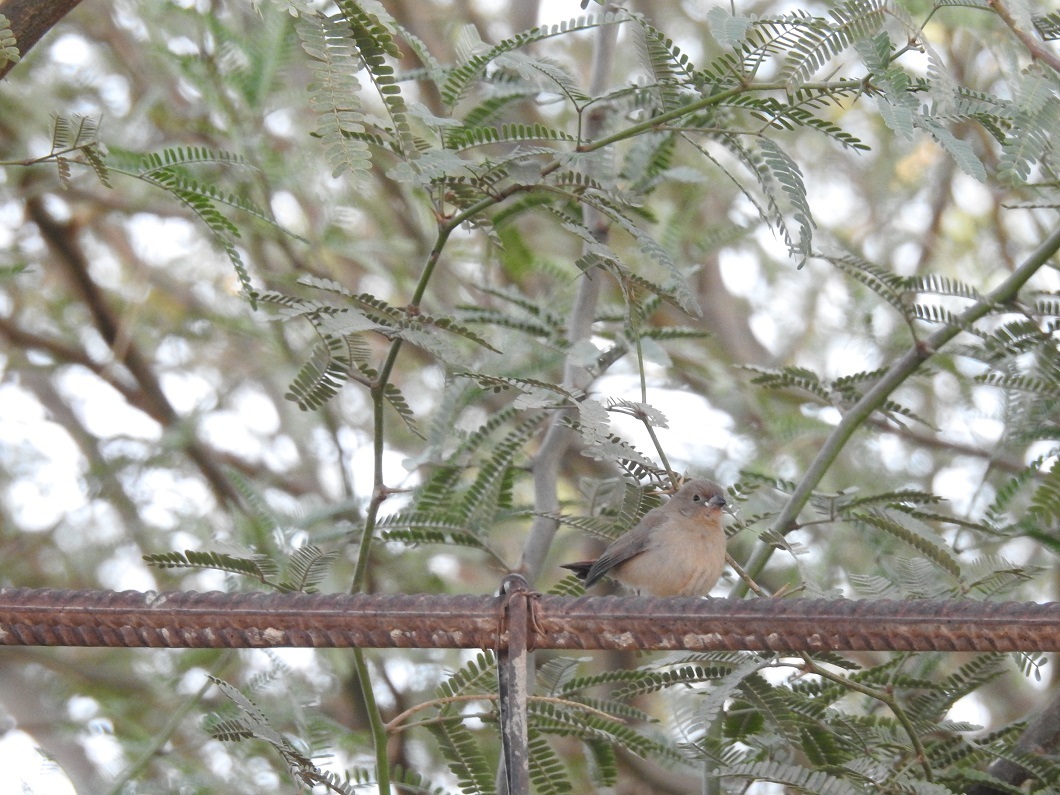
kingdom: Animalia
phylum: Chordata
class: Aves
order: Passeriformes
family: Estrildidae
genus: Lagonosticta
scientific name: Lagonosticta senegala
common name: Red-billed firefinch
